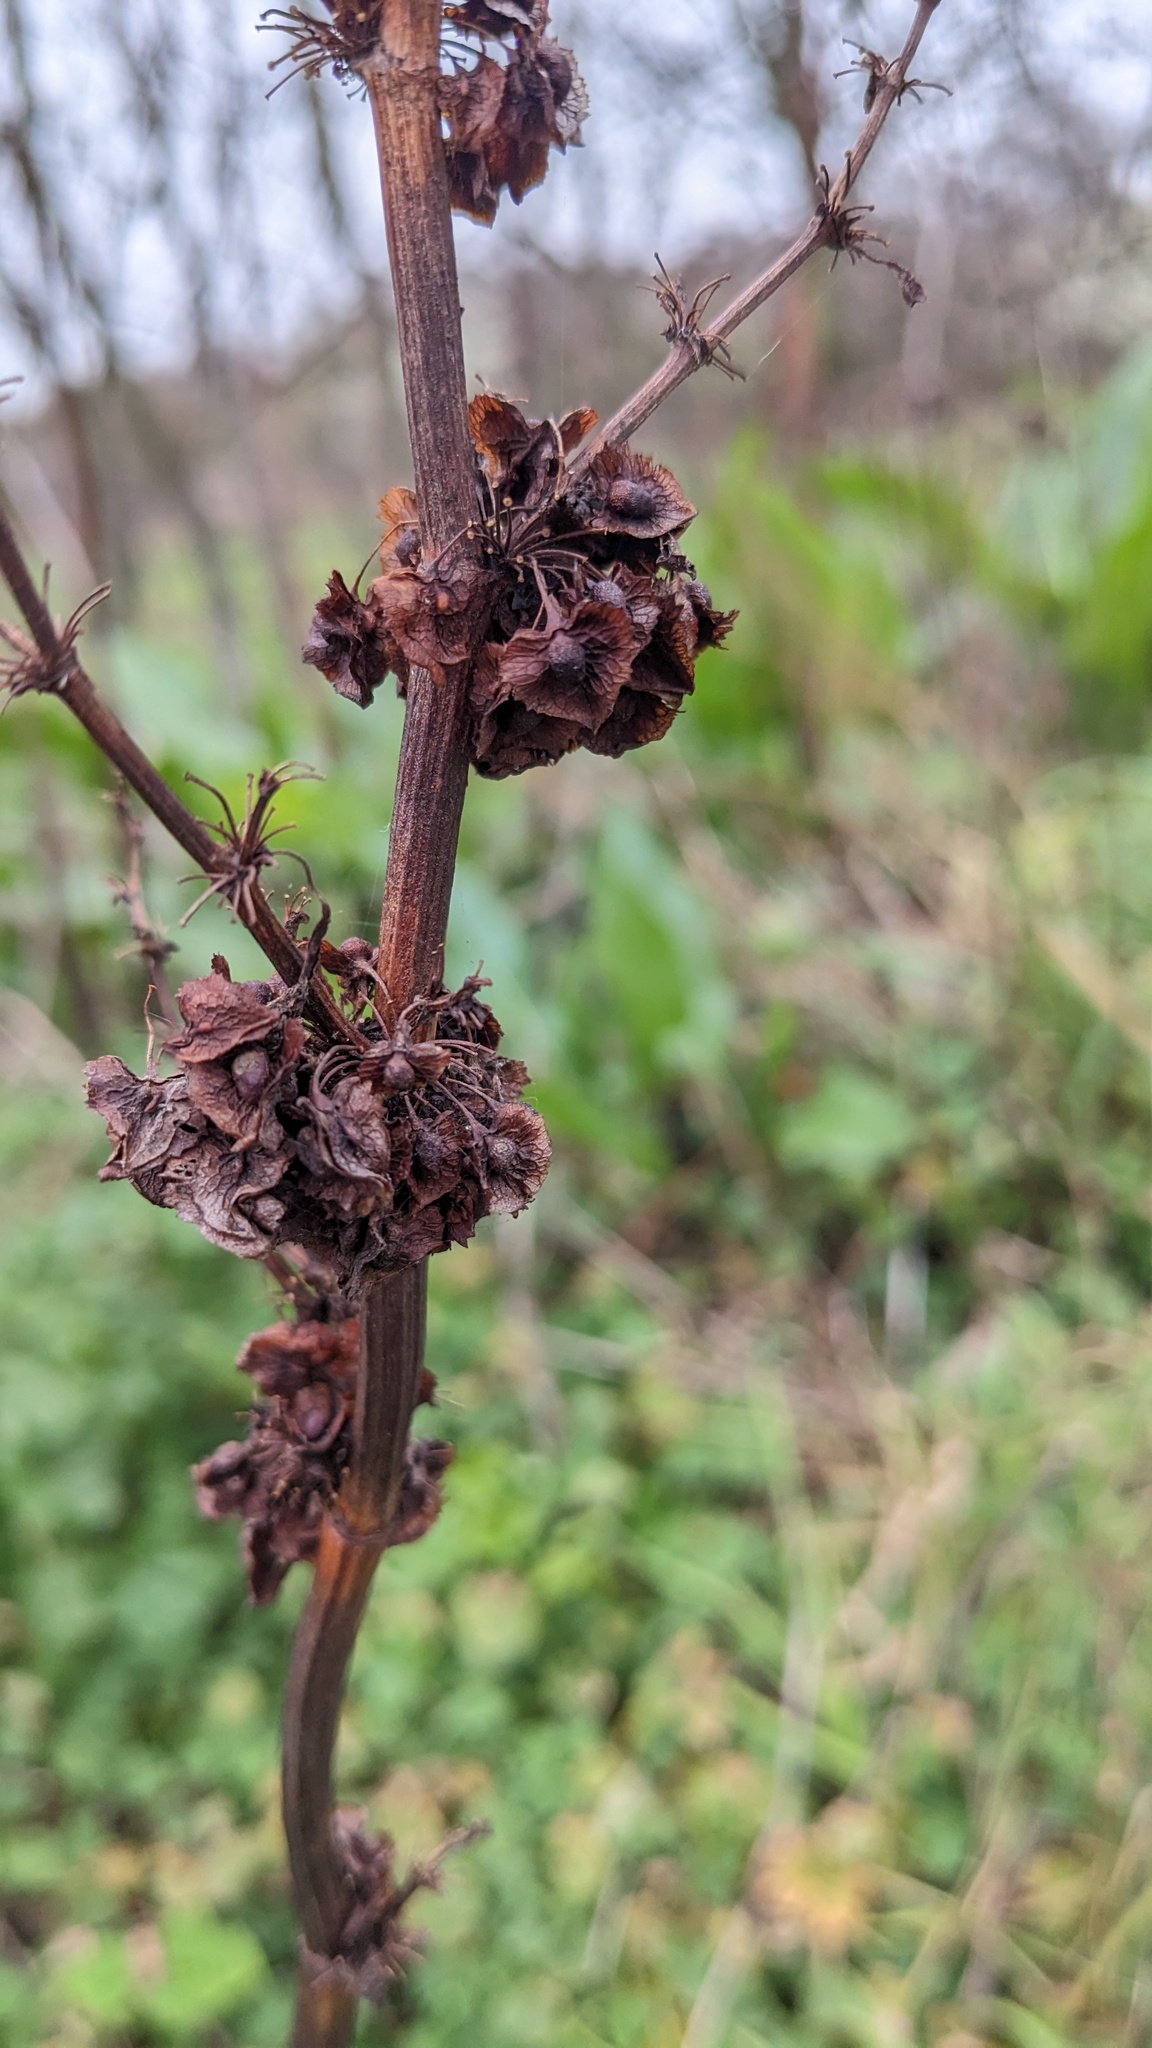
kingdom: Plantae
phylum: Tracheophyta
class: Magnoliopsida
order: Caryophyllales
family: Polygonaceae
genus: Rumex
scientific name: Rumex cristatus
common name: Greek dock
